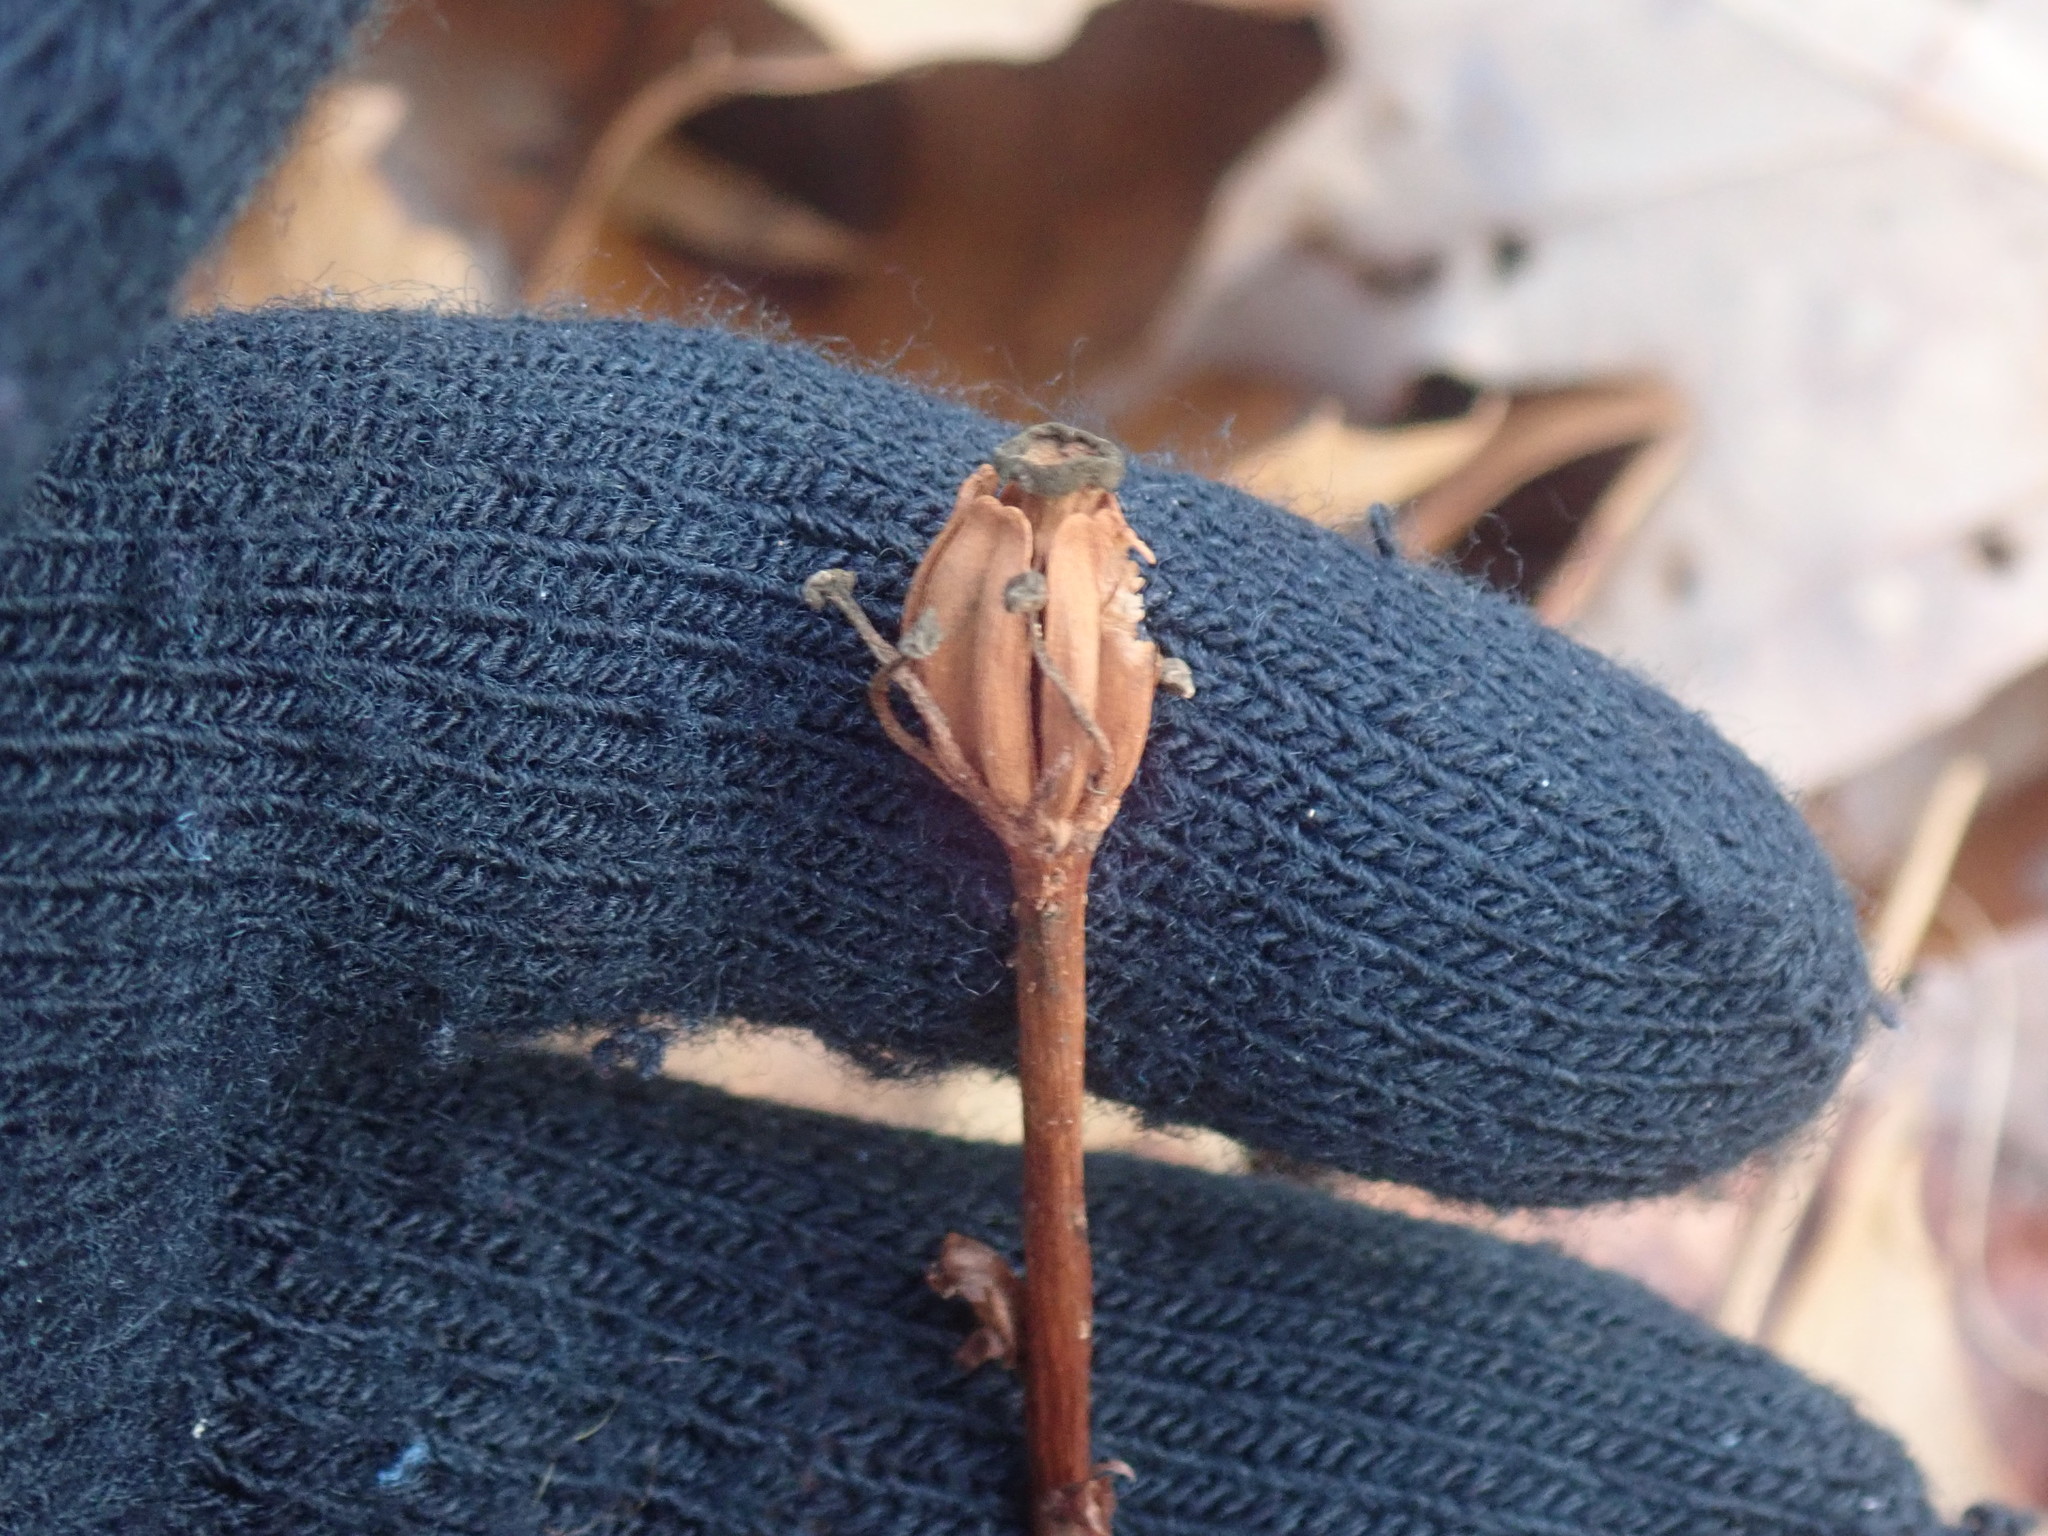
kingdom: Plantae
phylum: Tracheophyta
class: Magnoliopsida
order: Ericales
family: Ericaceae
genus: Monotropa
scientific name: Monotropa uniflora
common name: Convulsion root
